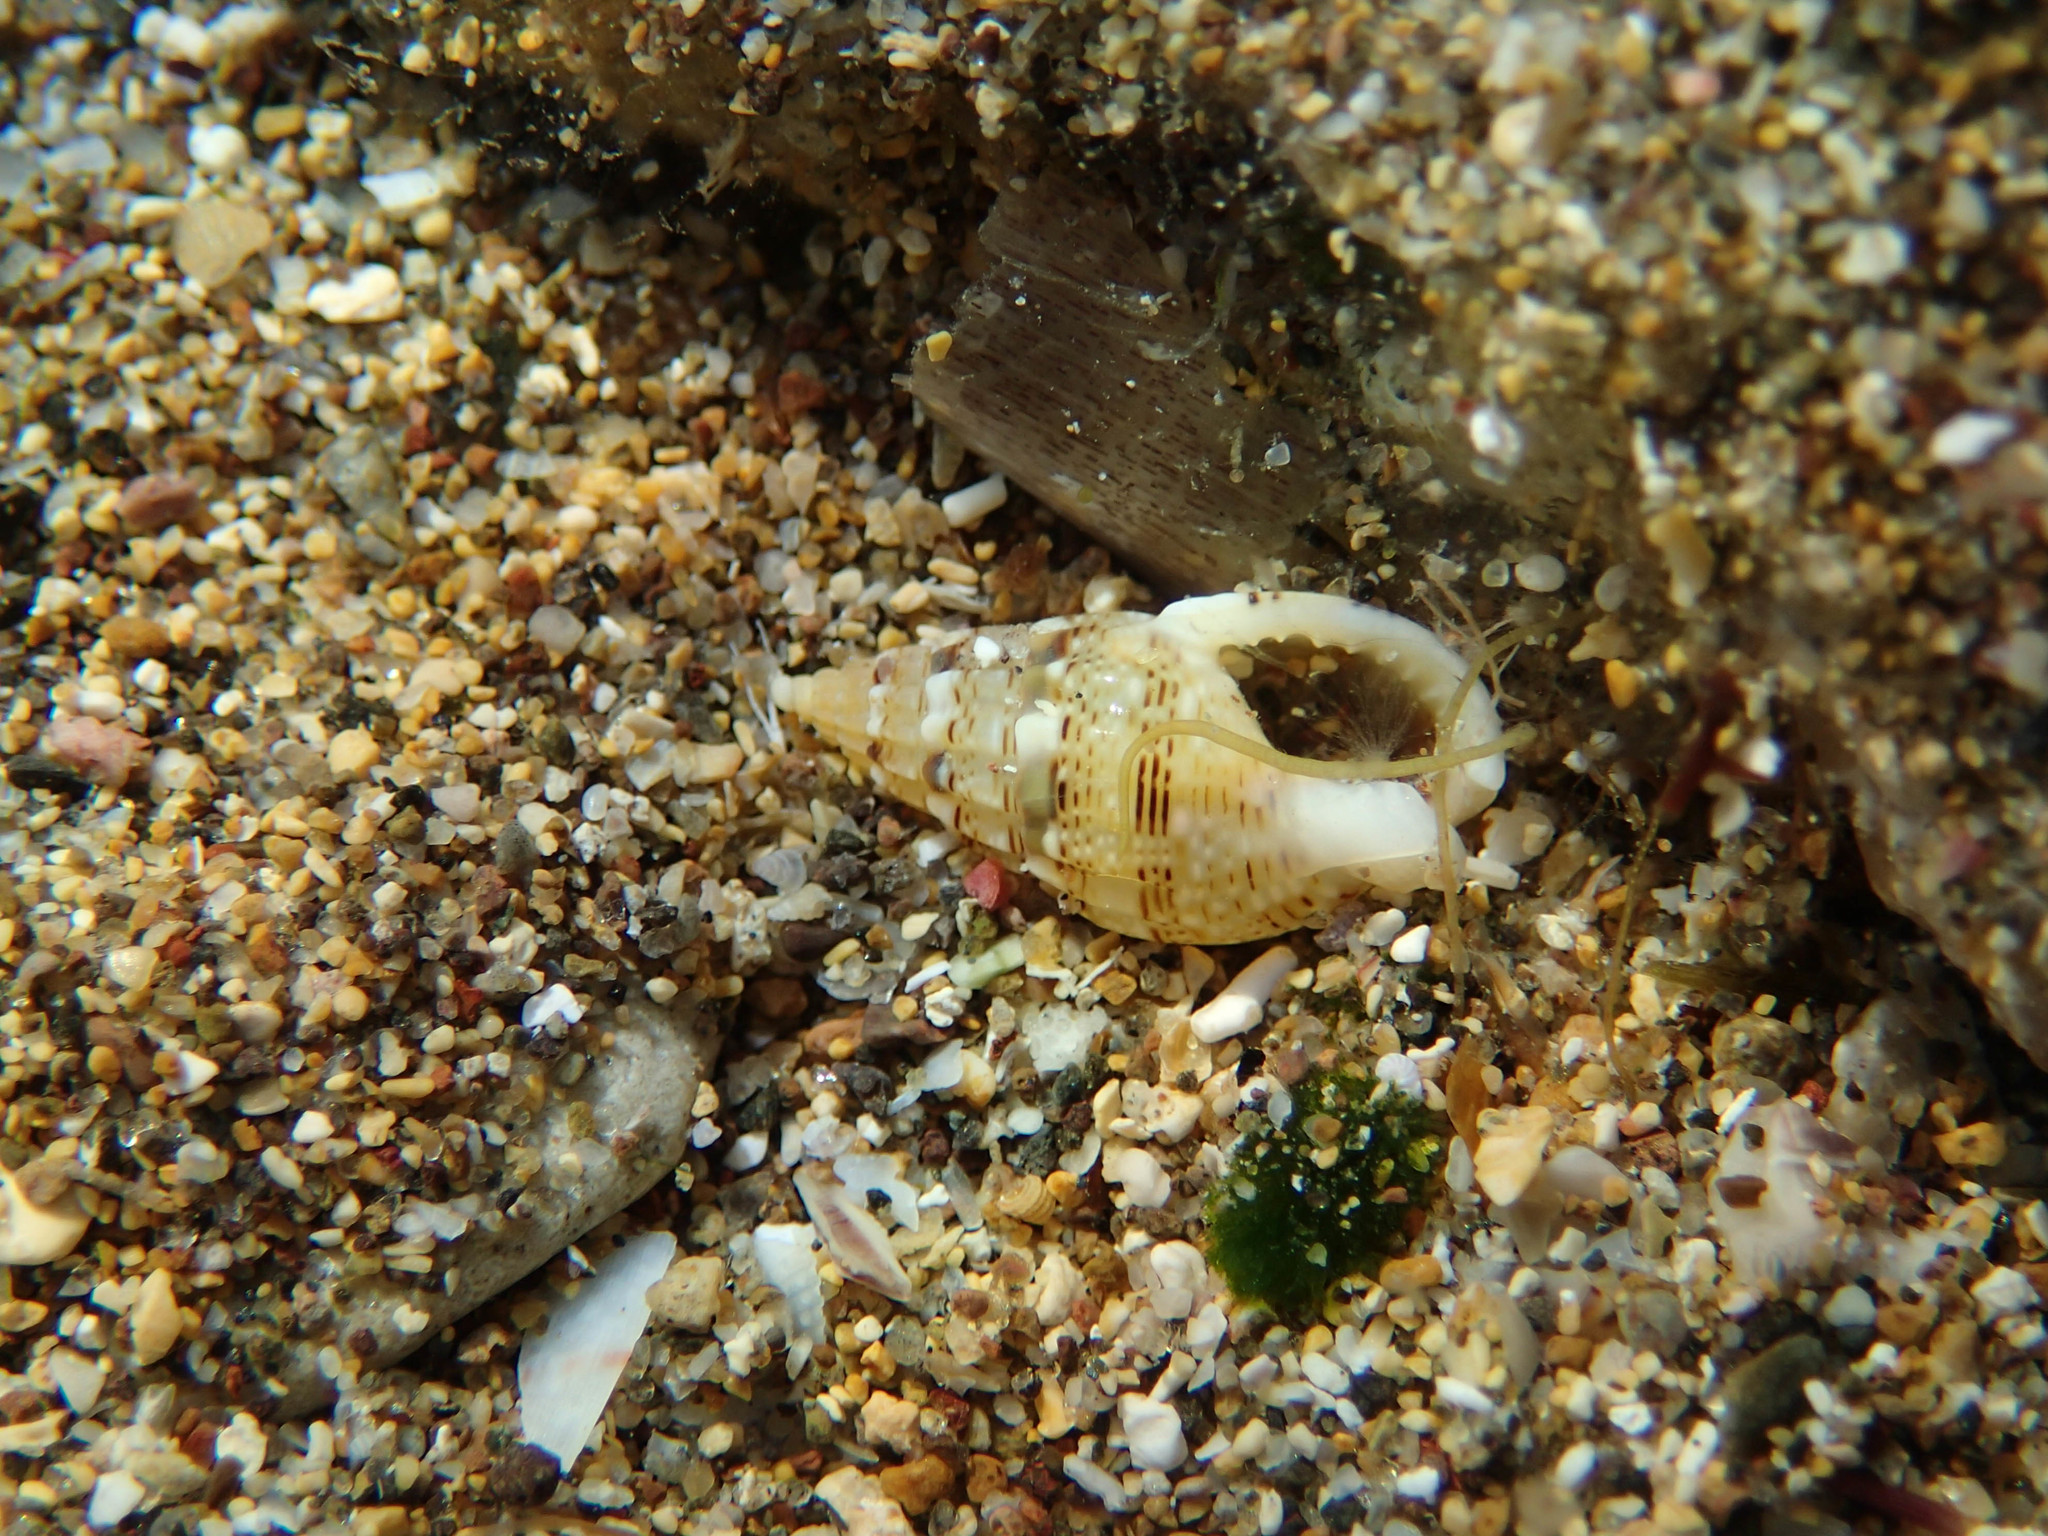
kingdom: Animalia
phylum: Mollusca
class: Gastropoda
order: Neogastropoda
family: Nassariidae
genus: Tritia
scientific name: Tritia cuvierii
